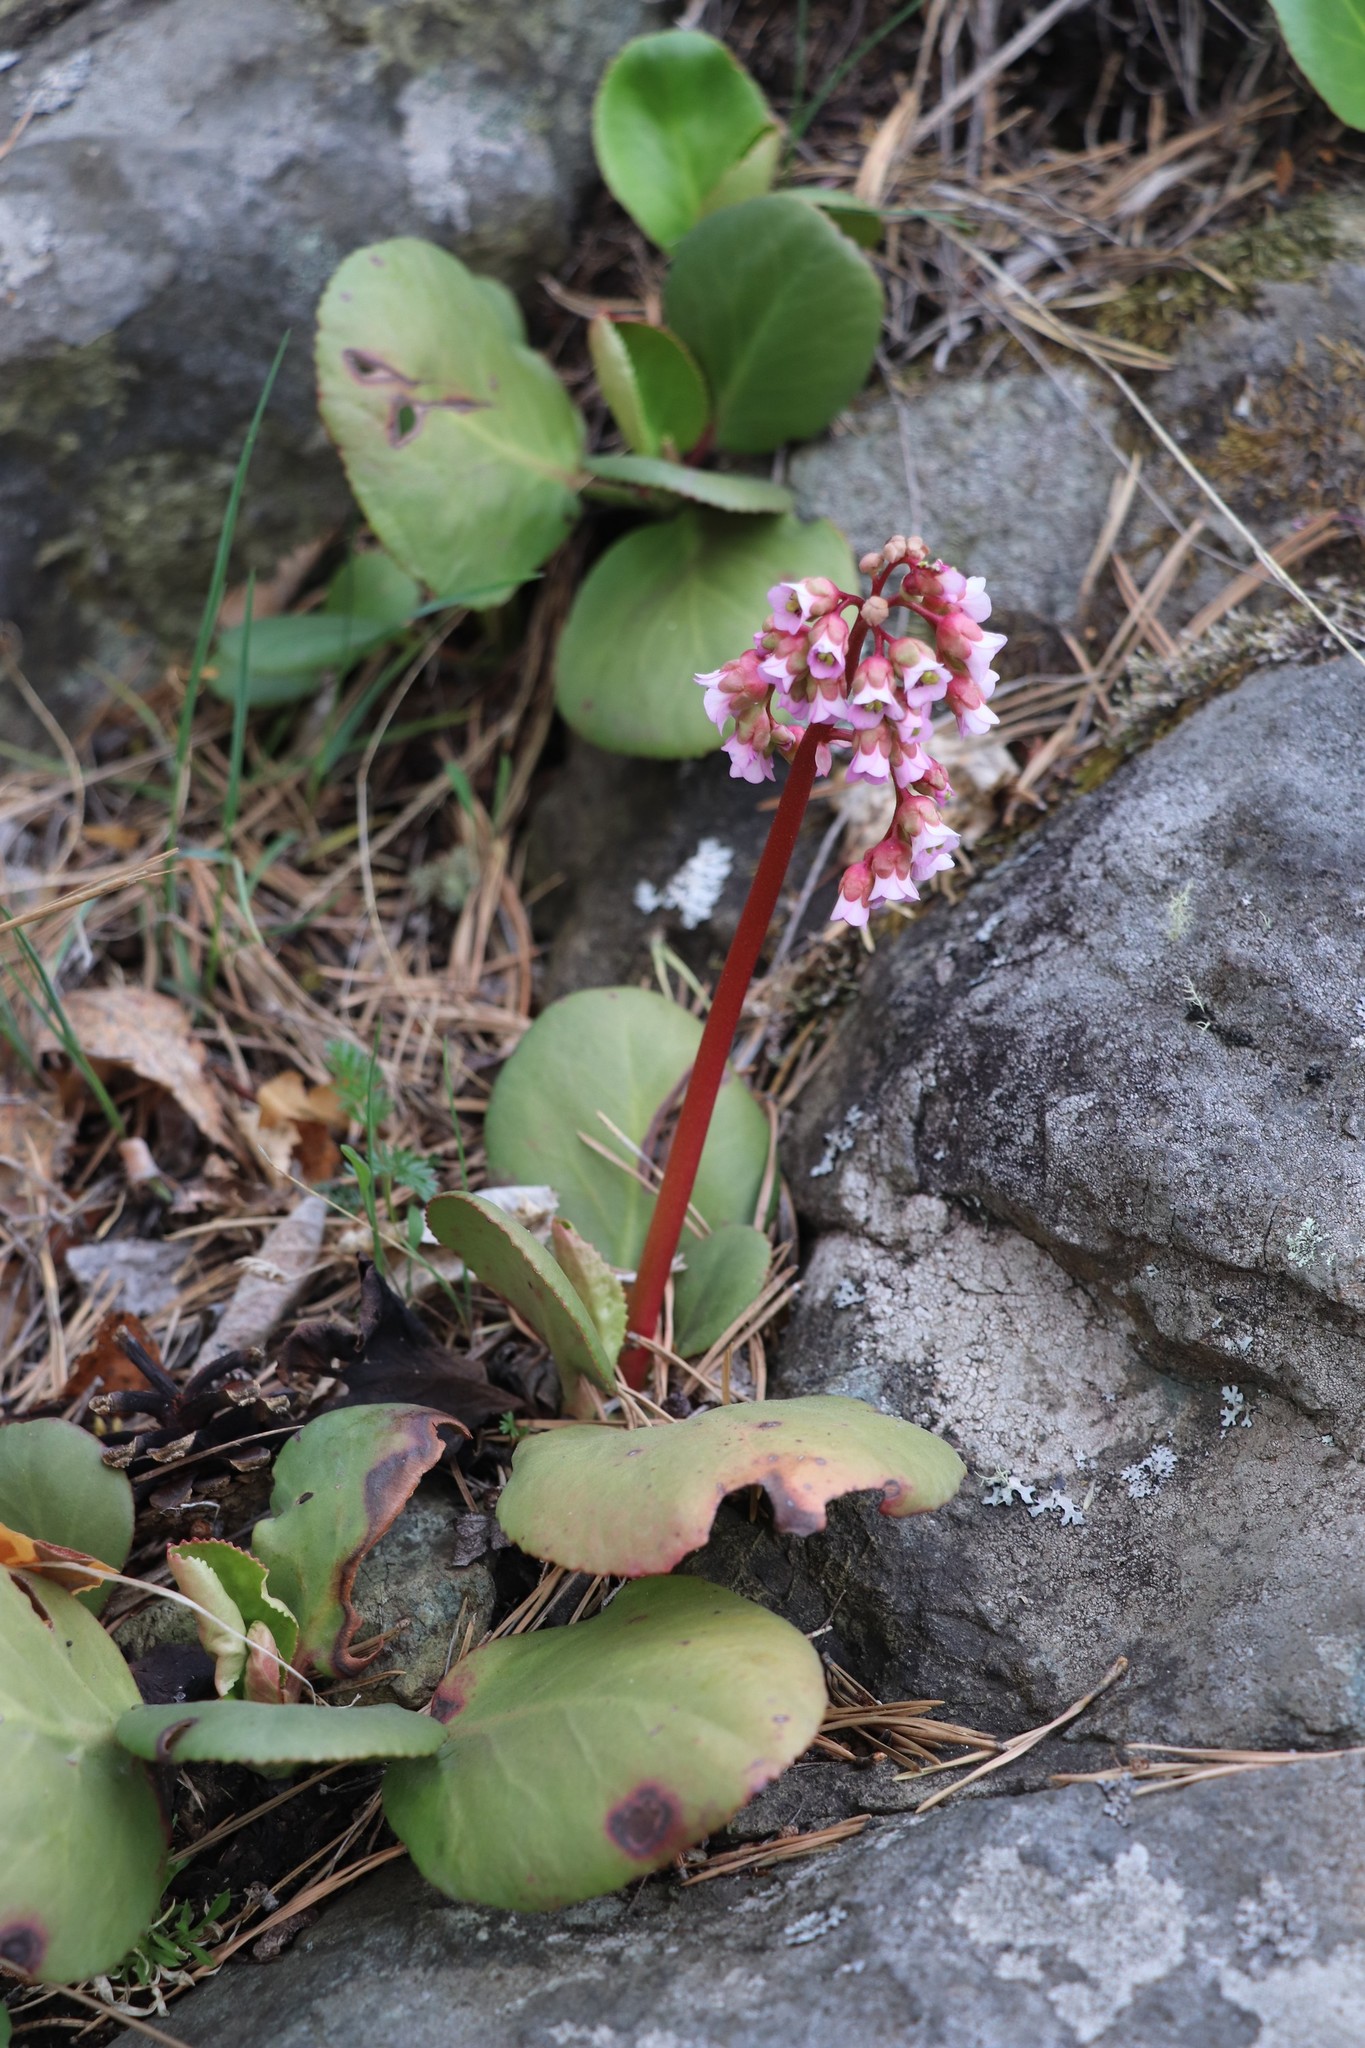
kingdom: Plantae
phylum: Tracheophyta
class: Magnoliopsida
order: Saxifragales
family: Saxifragaceae
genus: Bergenia
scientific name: Bergenia crassifolia
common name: Elephant-ears
